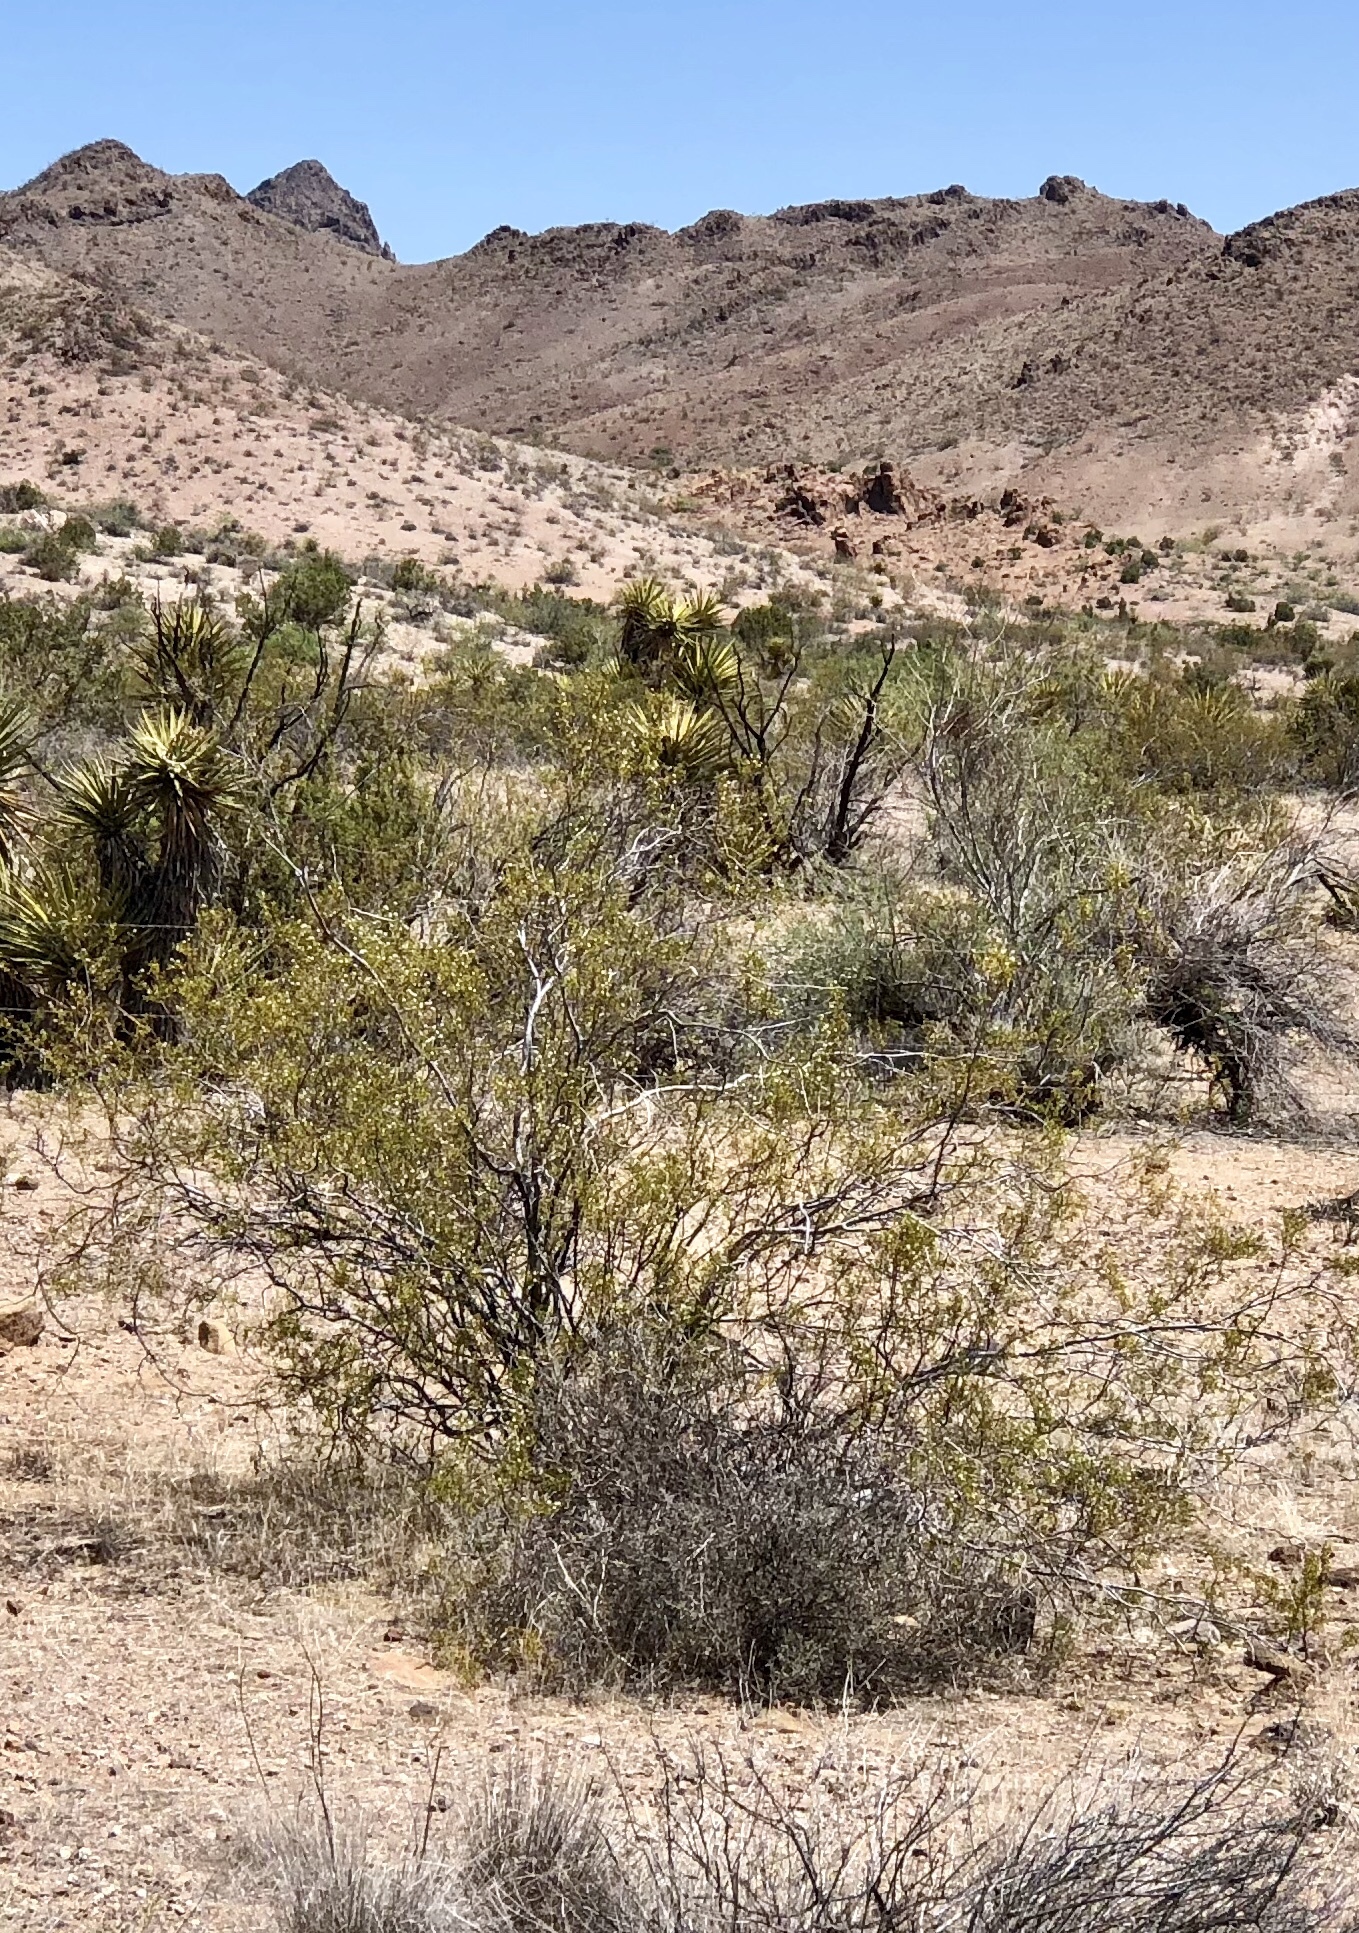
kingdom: Plantae
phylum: Tracheophyta
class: Magnoliopsida
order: Zygophyllales
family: Zygophyllaceae
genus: Larrea
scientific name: Larrea tridentata
